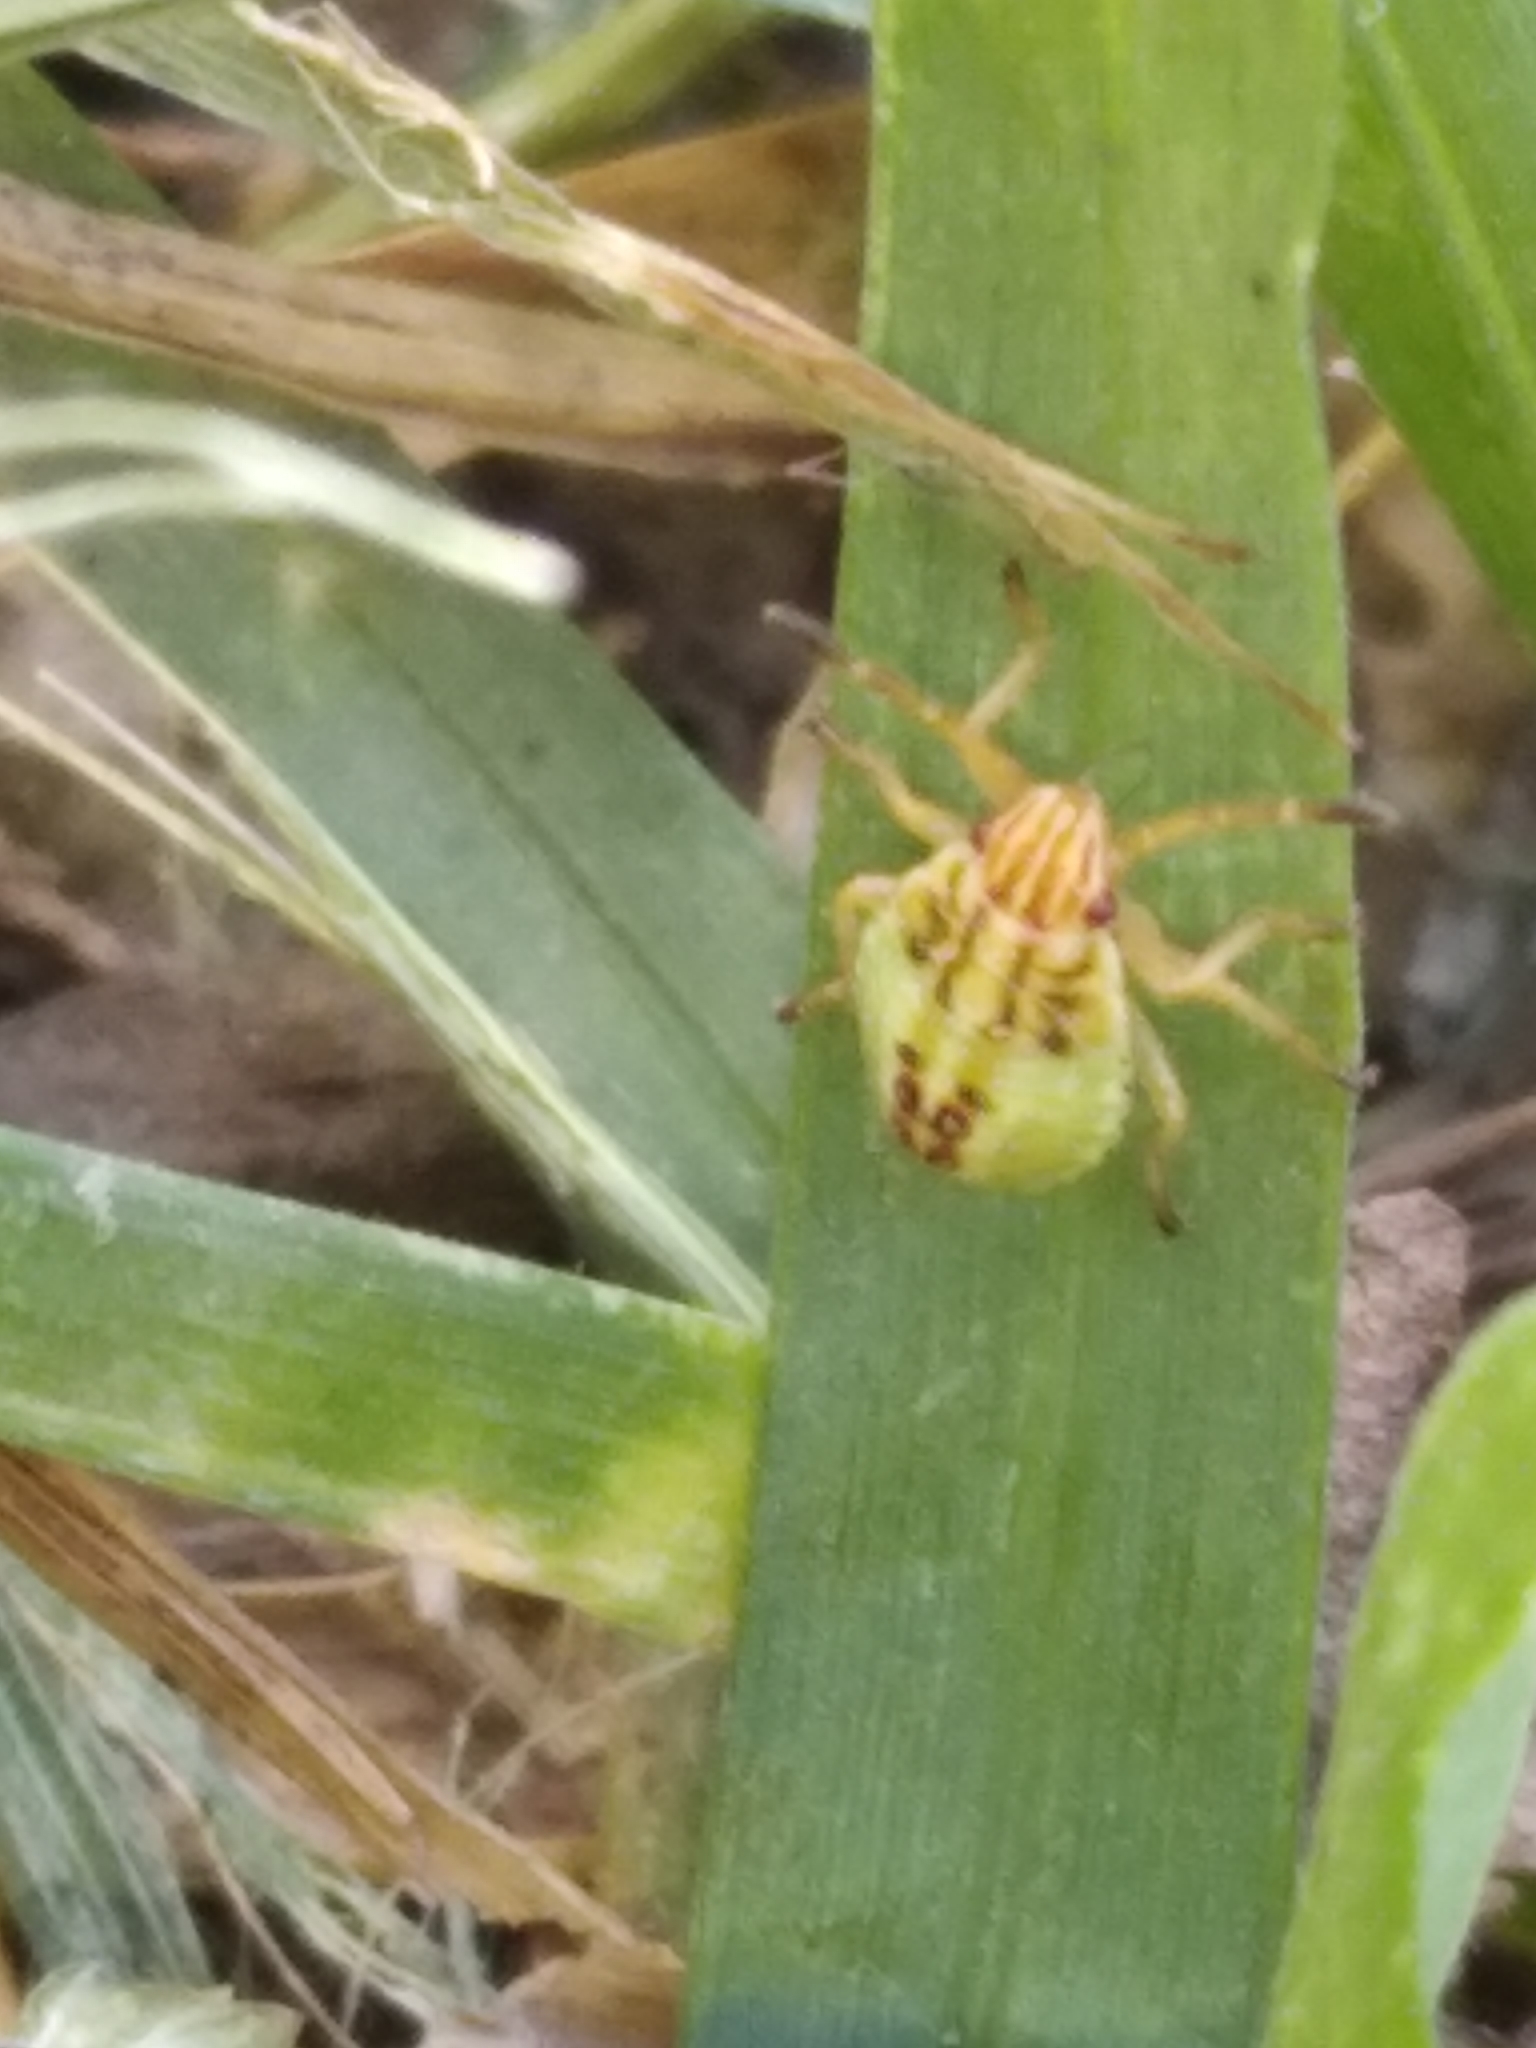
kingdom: Animalia
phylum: Arthropoda
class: Insecta
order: Hemiptera
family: Acanthosomatidae
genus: Elasmucha
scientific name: Elasmucha grisea
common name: Parent bug
